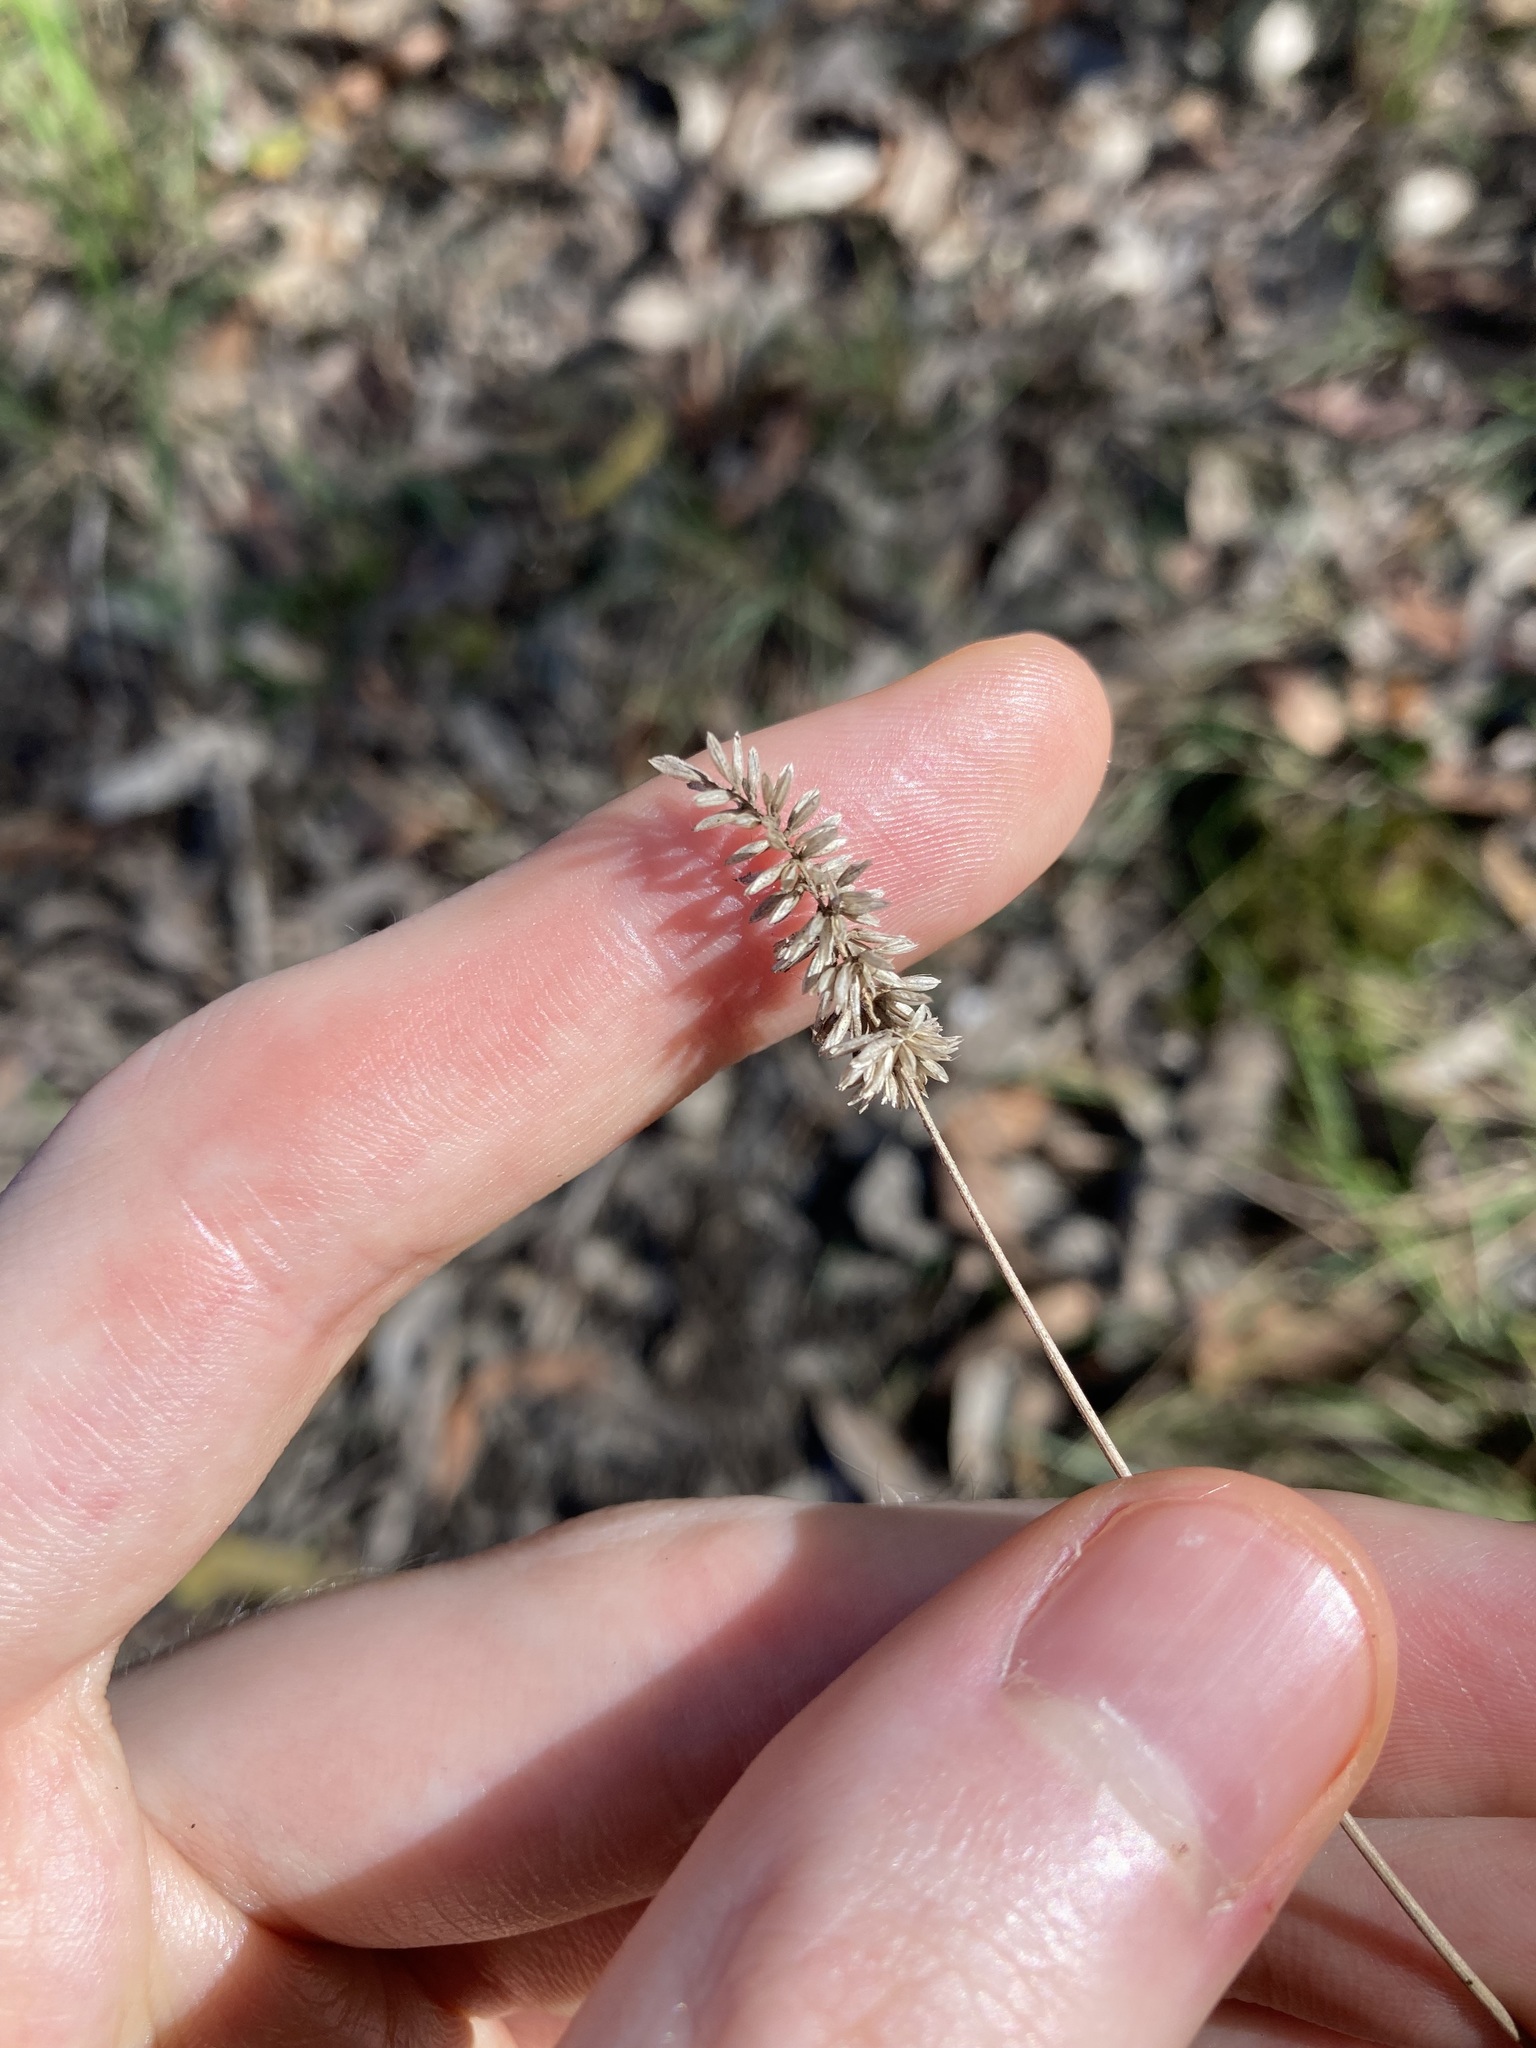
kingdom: Plantae
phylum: Tracheophyta
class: Liliopsida
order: Poales
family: Poaceae
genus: Echinopogon
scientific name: Echinopogon caespitosus
